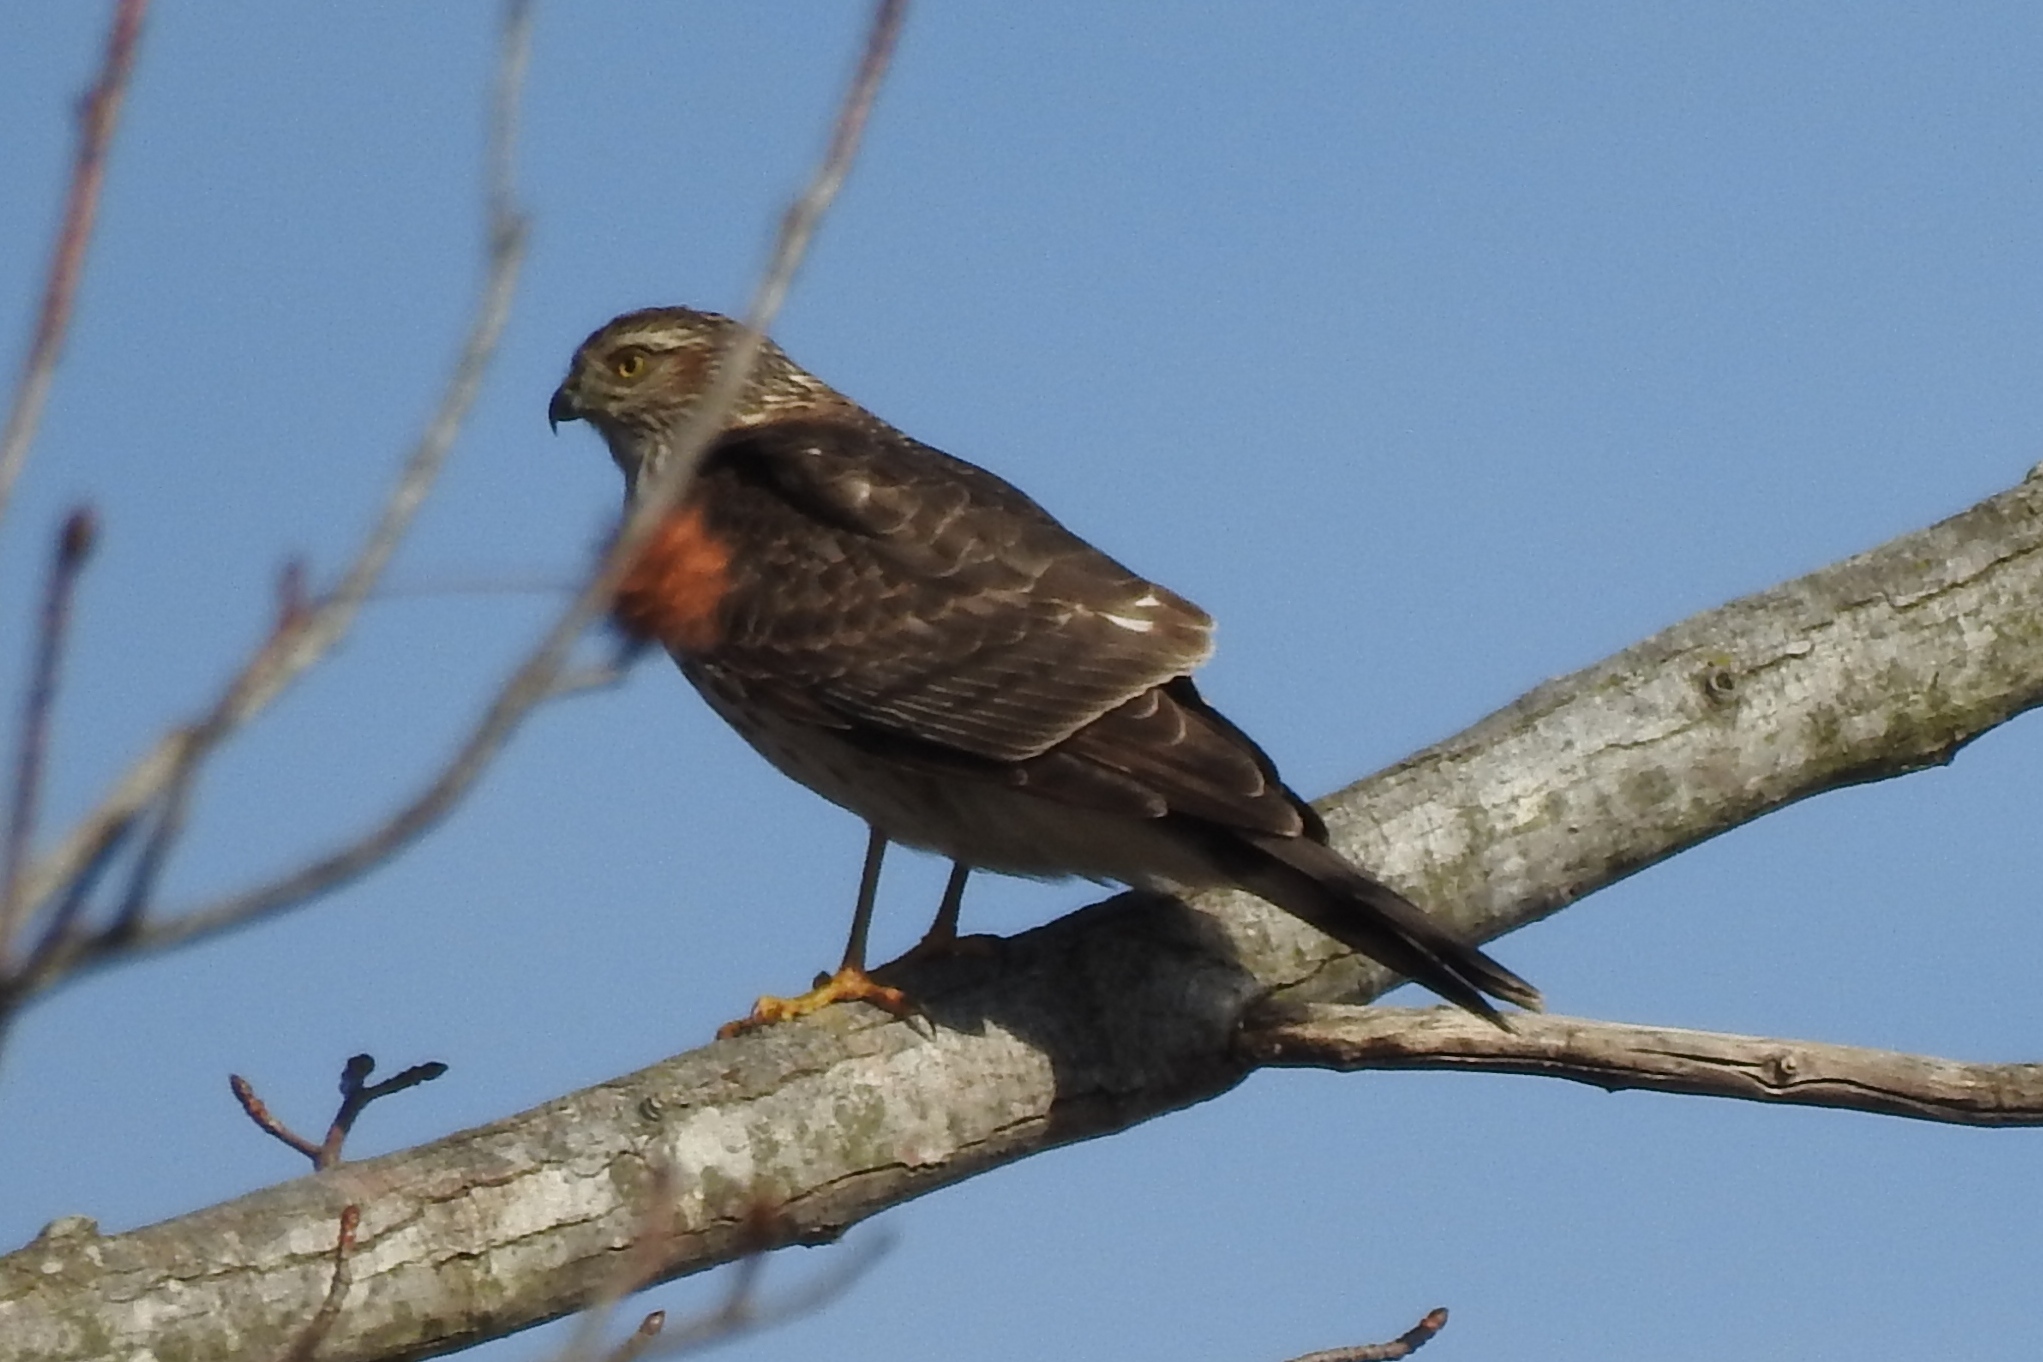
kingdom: Animalia
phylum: Chordata
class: Aves
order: Accipitriformes
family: Accipitridae
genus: Circus
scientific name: Circus cyaneus
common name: Hen harrier
